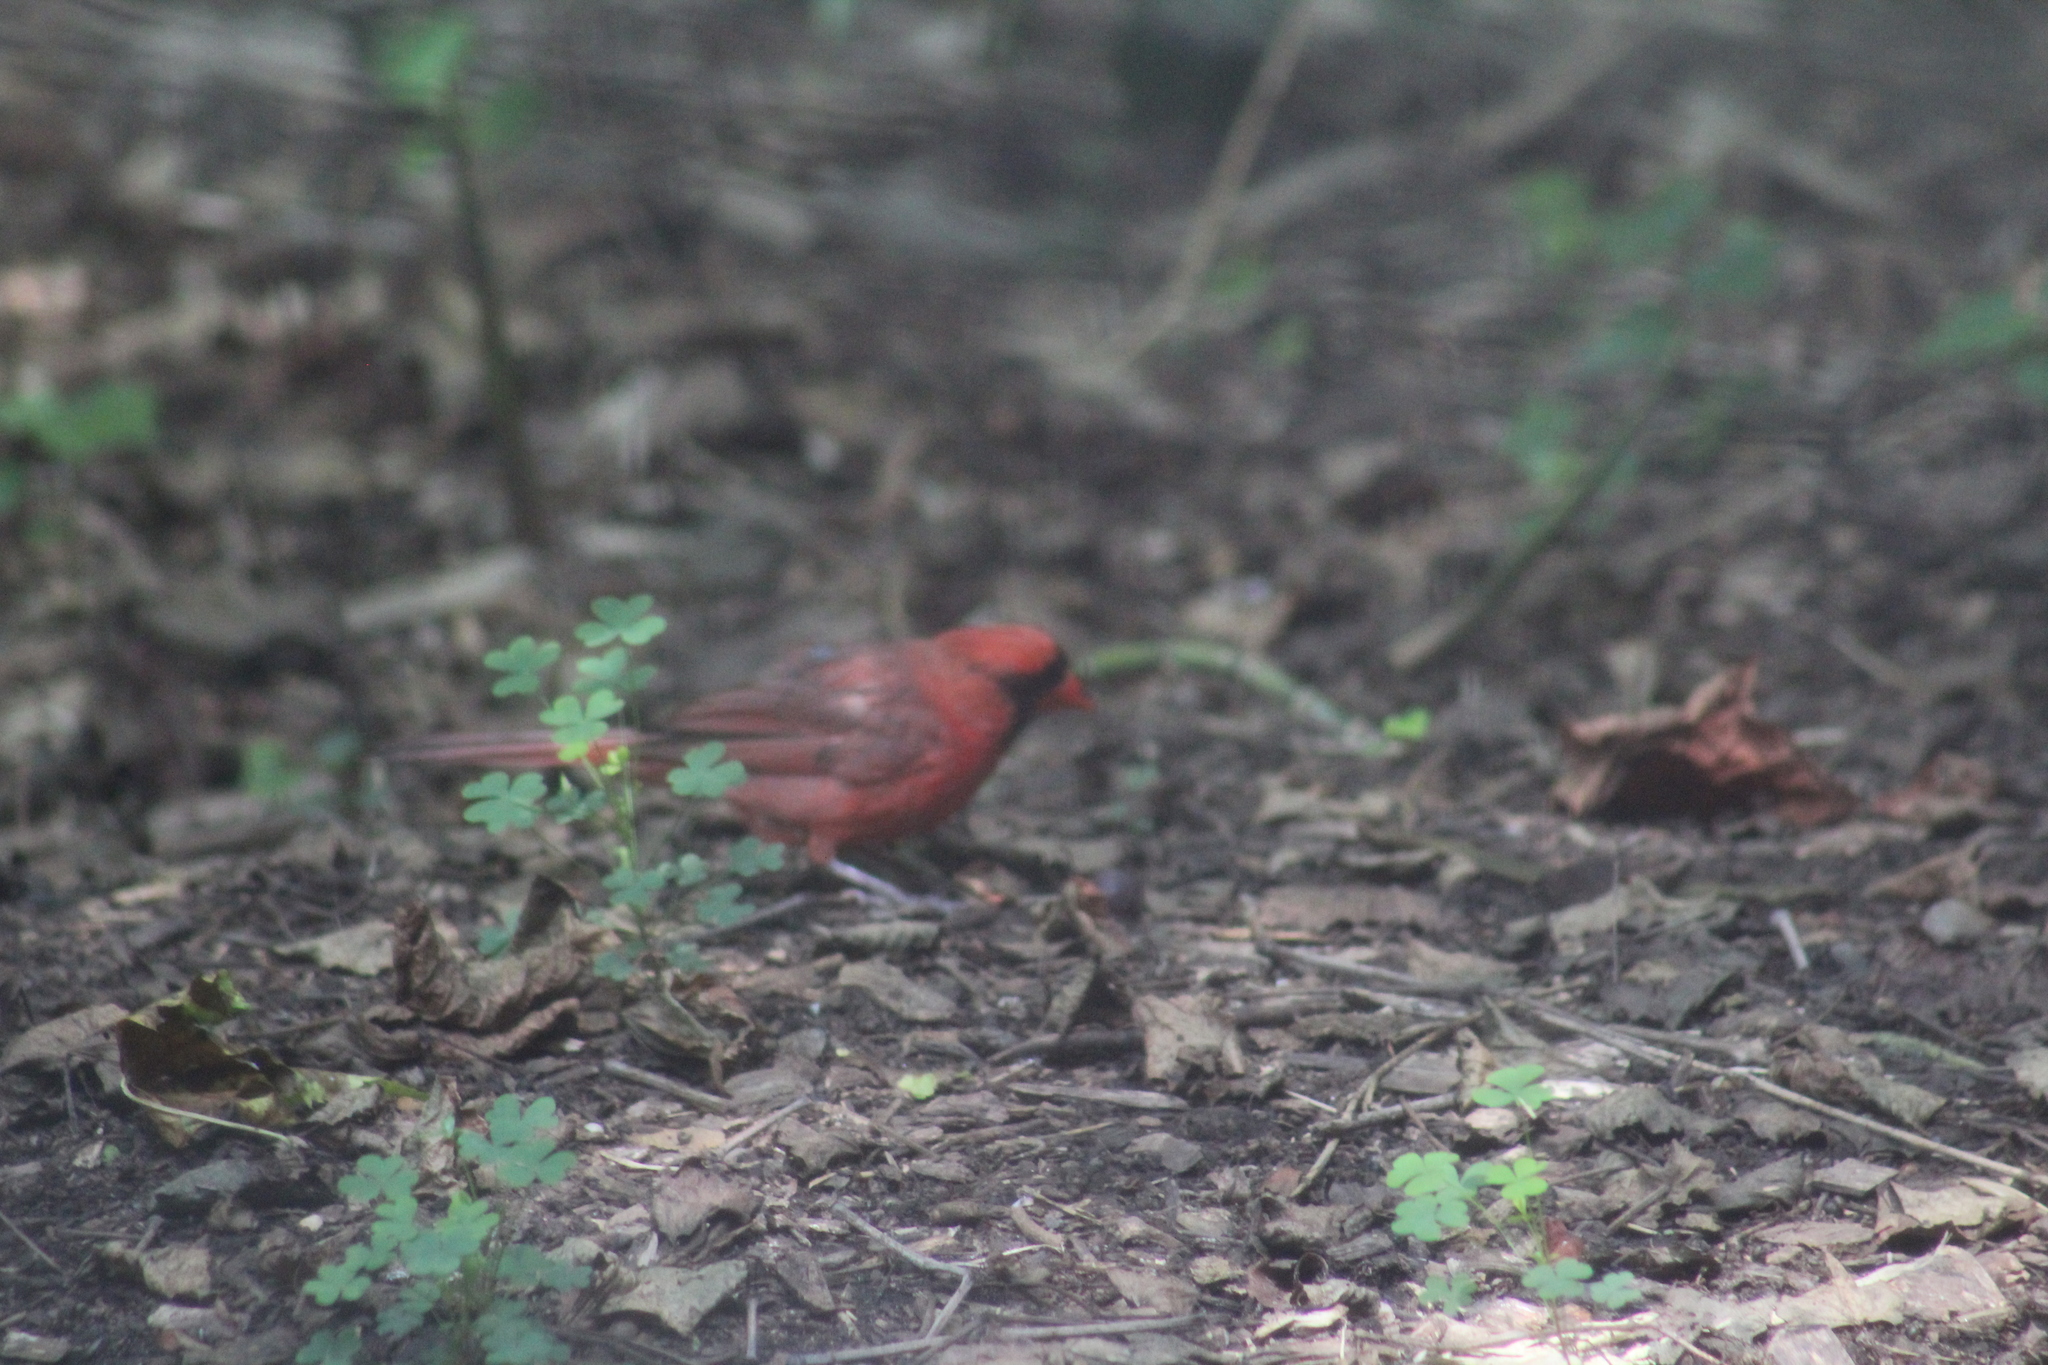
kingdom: Animalia
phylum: Chordata
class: Aves
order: Passeriformes
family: Cardinalidae
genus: Cardinalis
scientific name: Cardinalis cardinalis
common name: Northern cardinal
